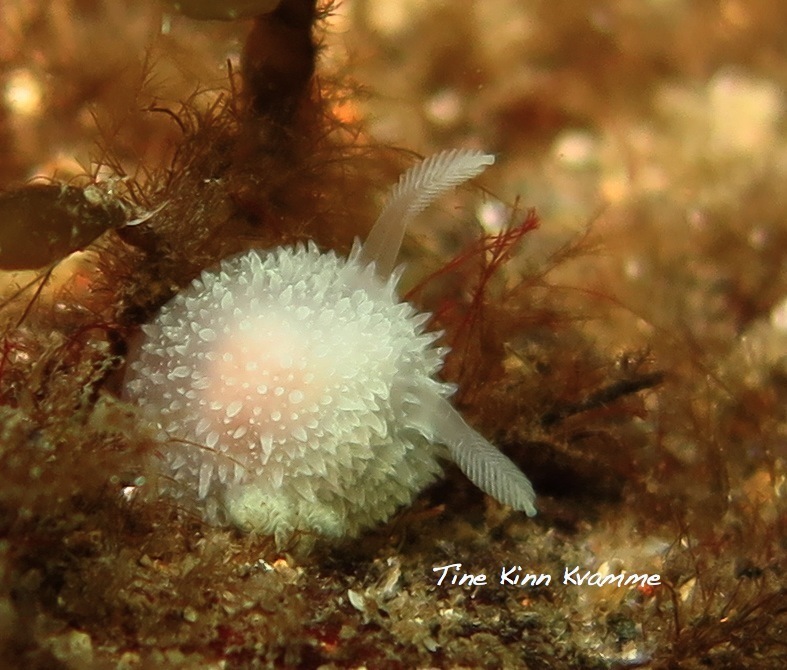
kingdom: Animalia
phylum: Mollusca
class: Gastropoda
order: Nudibranchia
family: Onchidorididae
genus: Acanthodoris
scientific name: Acanthodoris pilosa
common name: Hairy spiny doris
